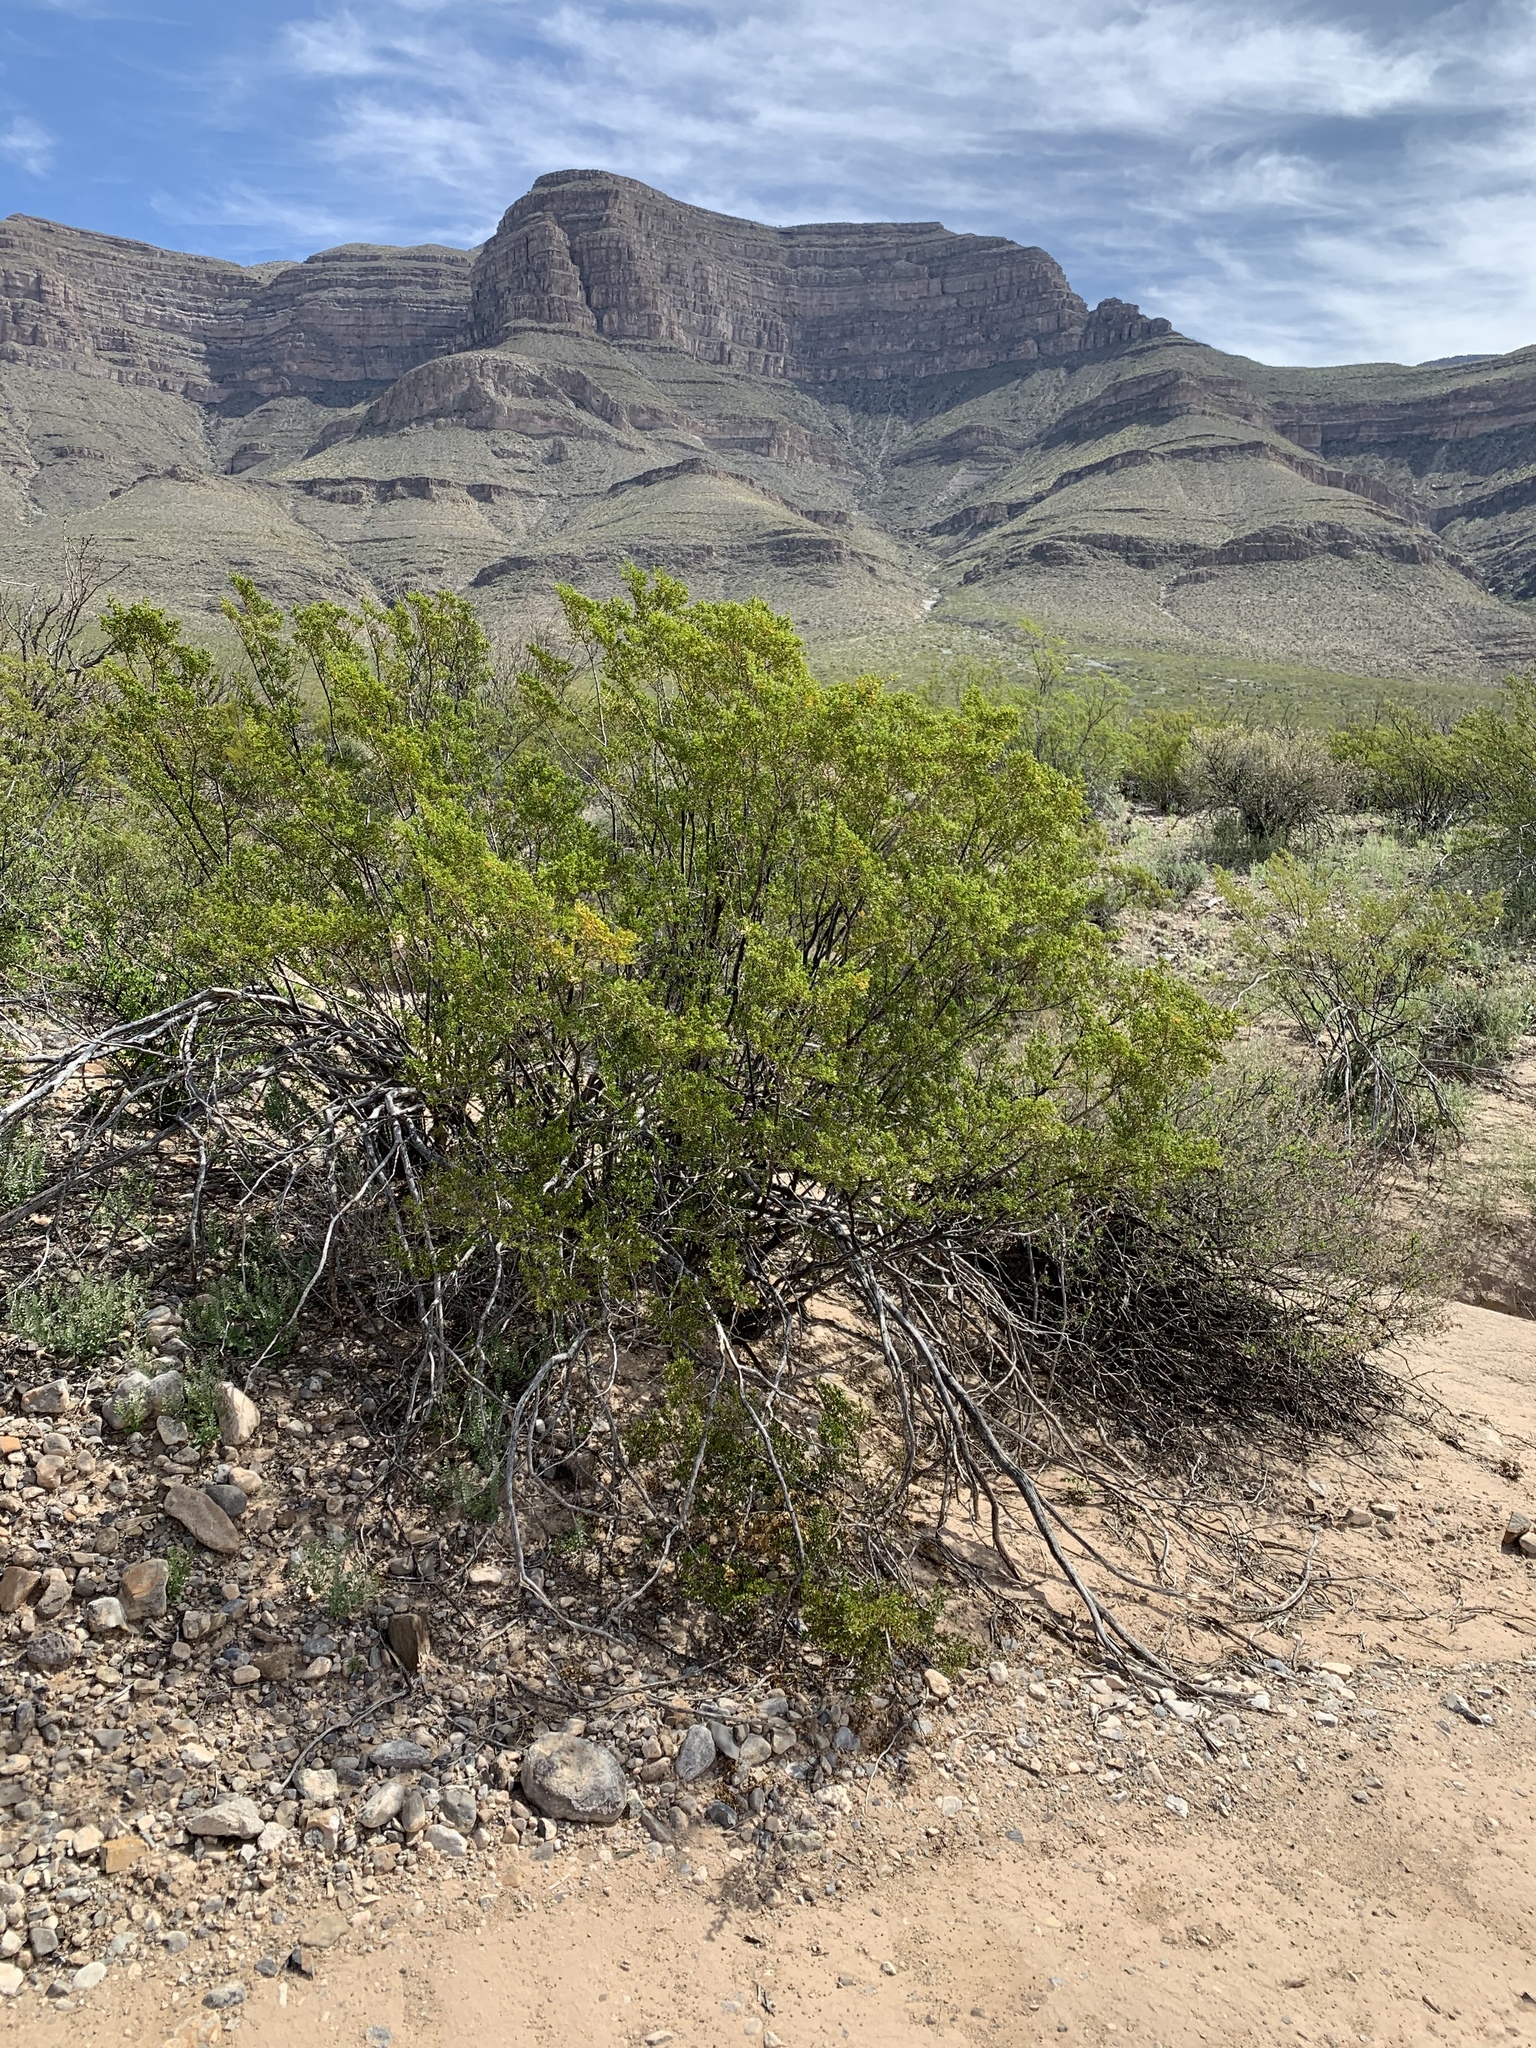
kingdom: Plantae
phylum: Tracheophyta
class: Magnoliopsida
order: Zygophyllales
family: Zygophyllaceae
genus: Larrea
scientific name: Larrea tridentata
